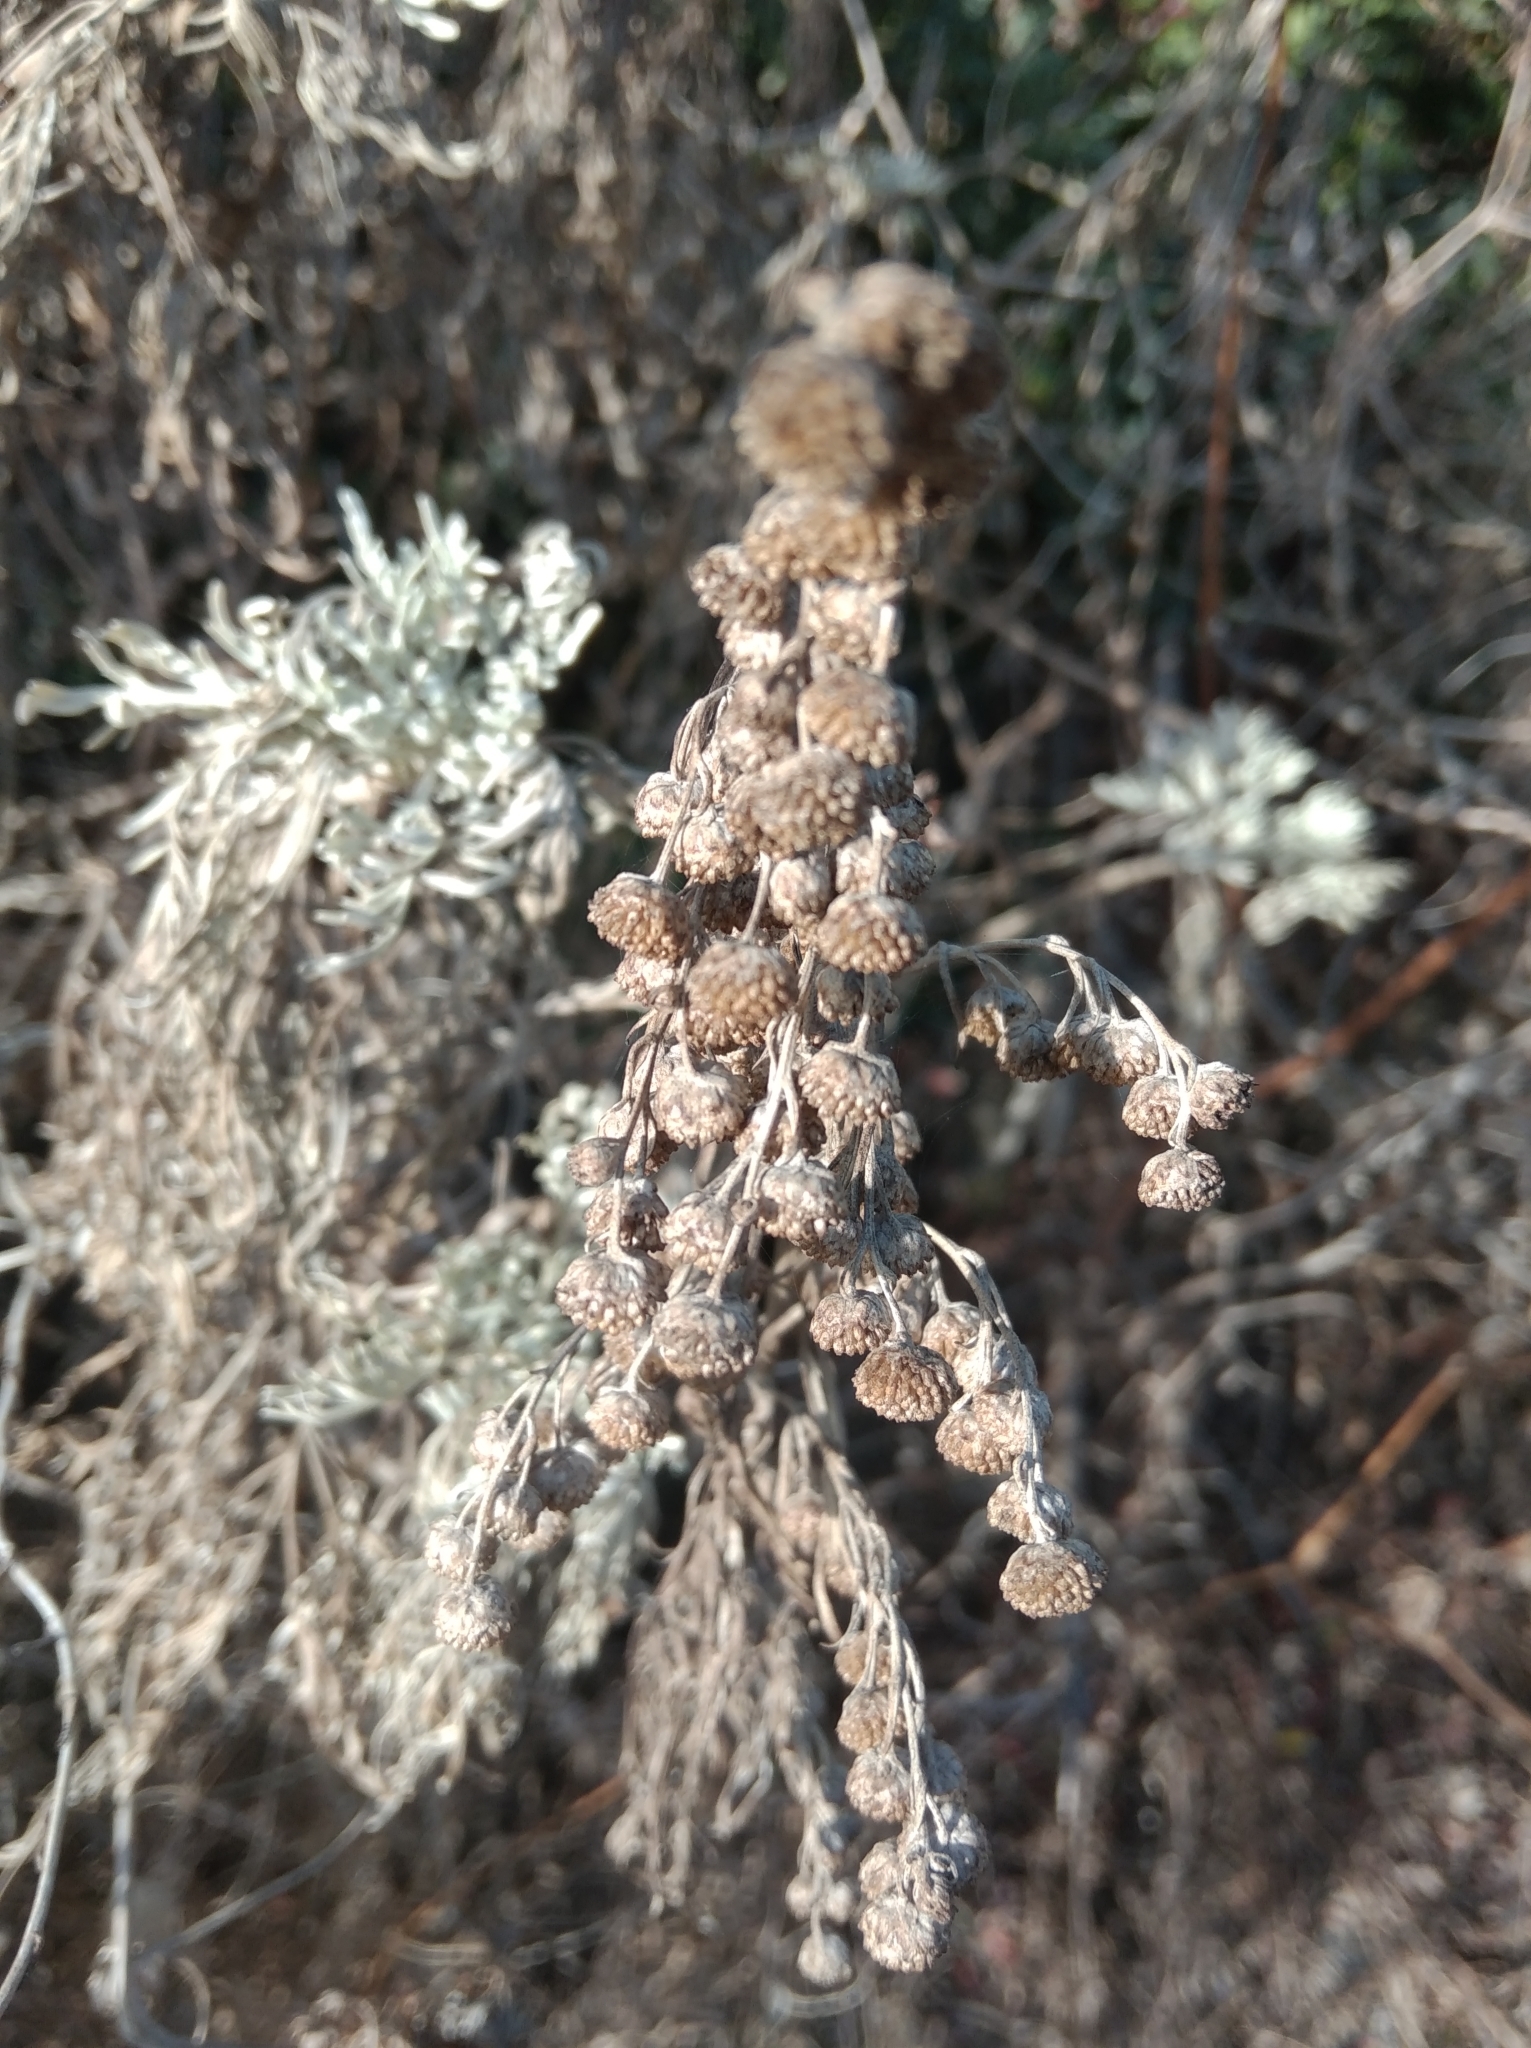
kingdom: Plantae
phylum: Tracheophyta
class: Magnoliopsida
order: Asterales
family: Asteraceae
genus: Artemisia
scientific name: Artemisia arborescens
